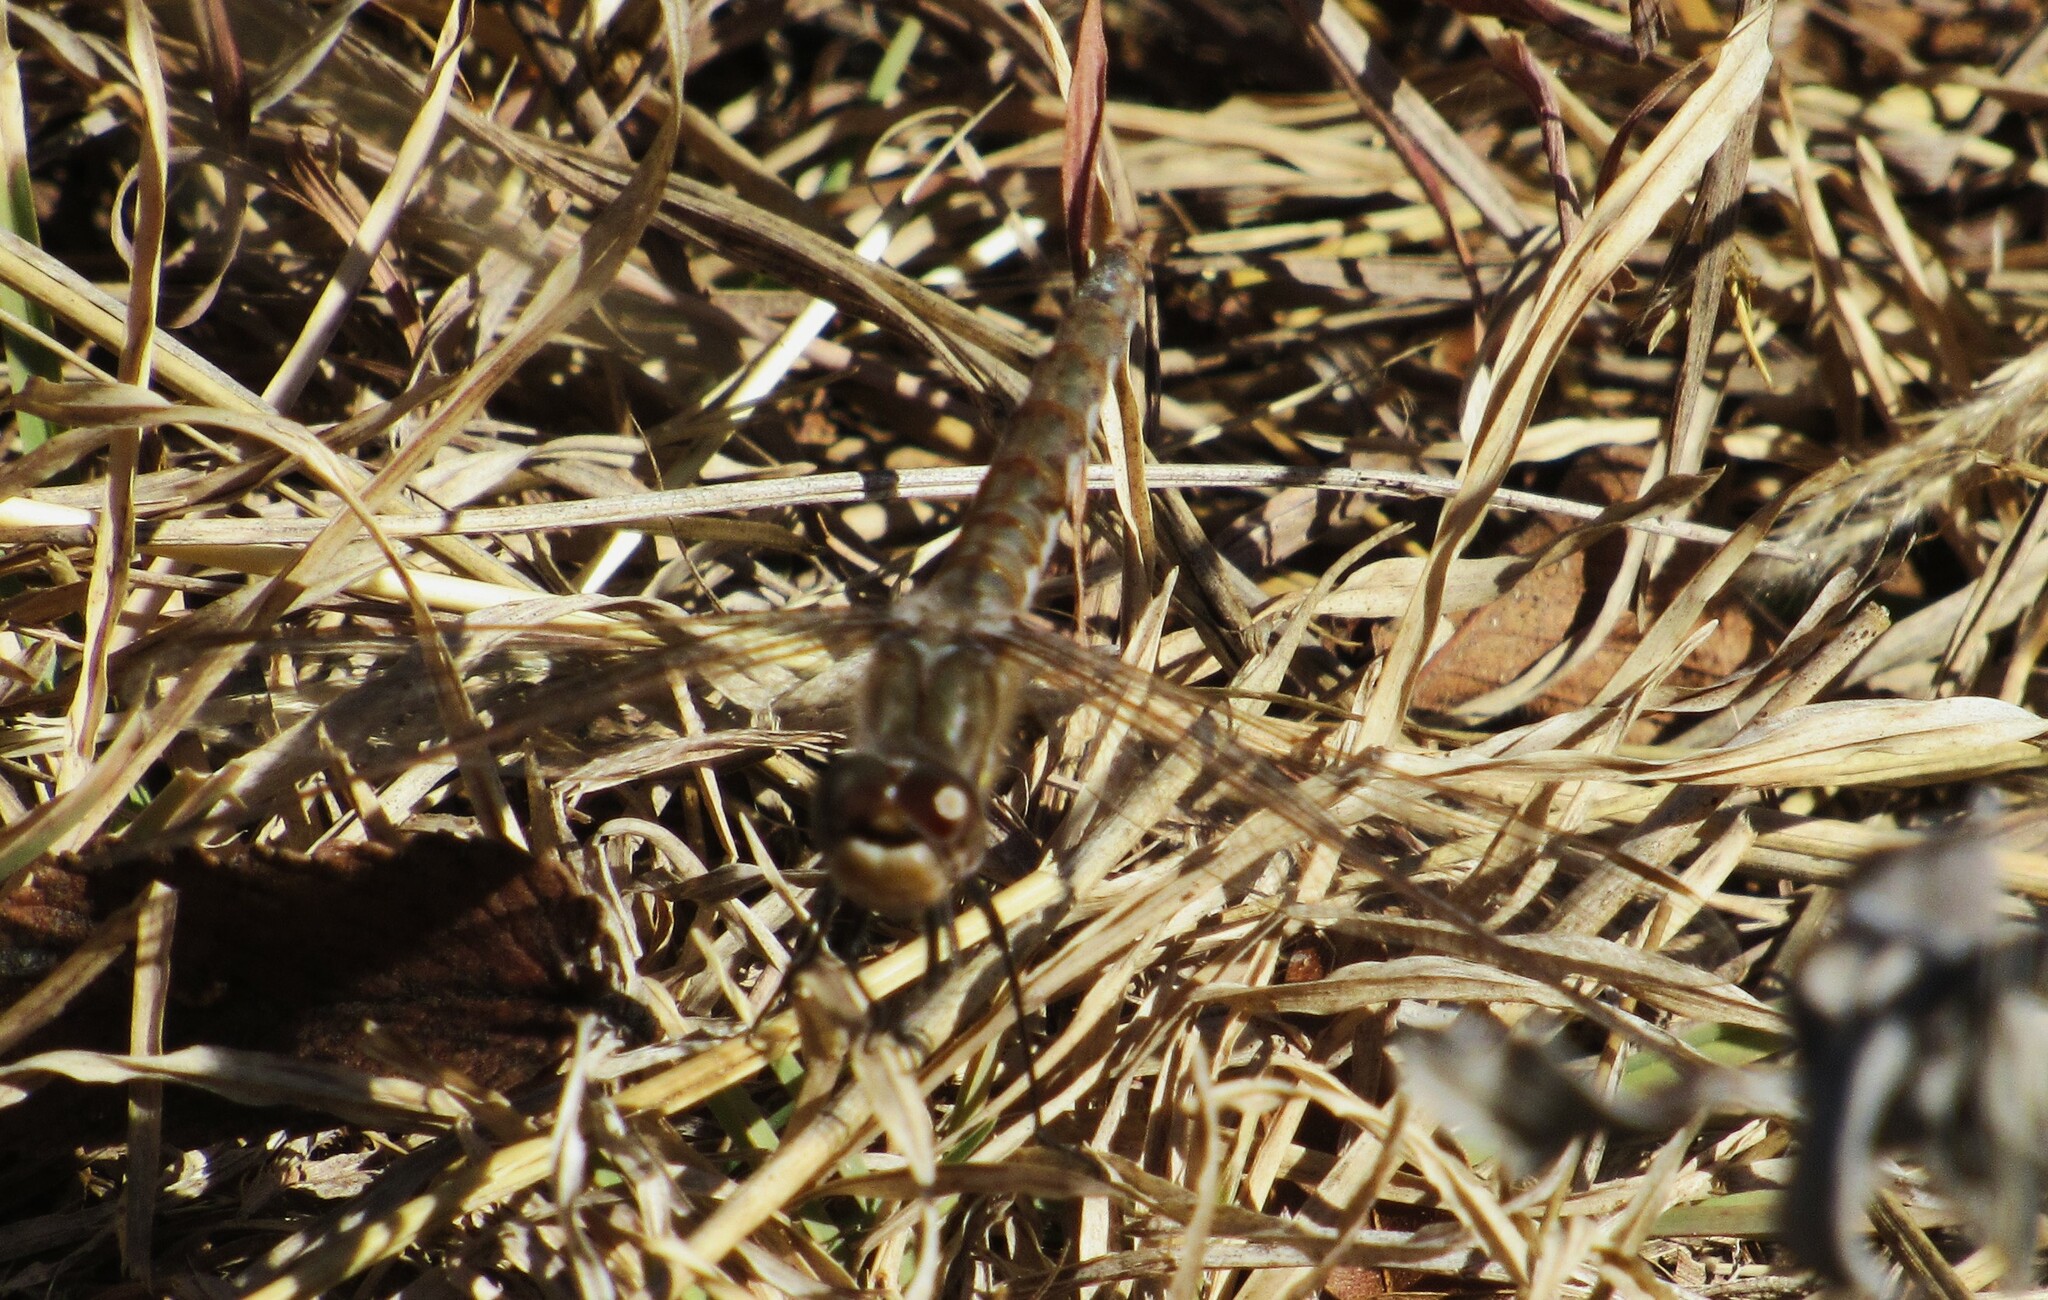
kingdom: Animalia
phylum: Arthropoda
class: Insecta
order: Odonata
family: Libellulidae
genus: Sympetrum
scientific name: Sympetrum corruptum
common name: Variegated meadowhawk
